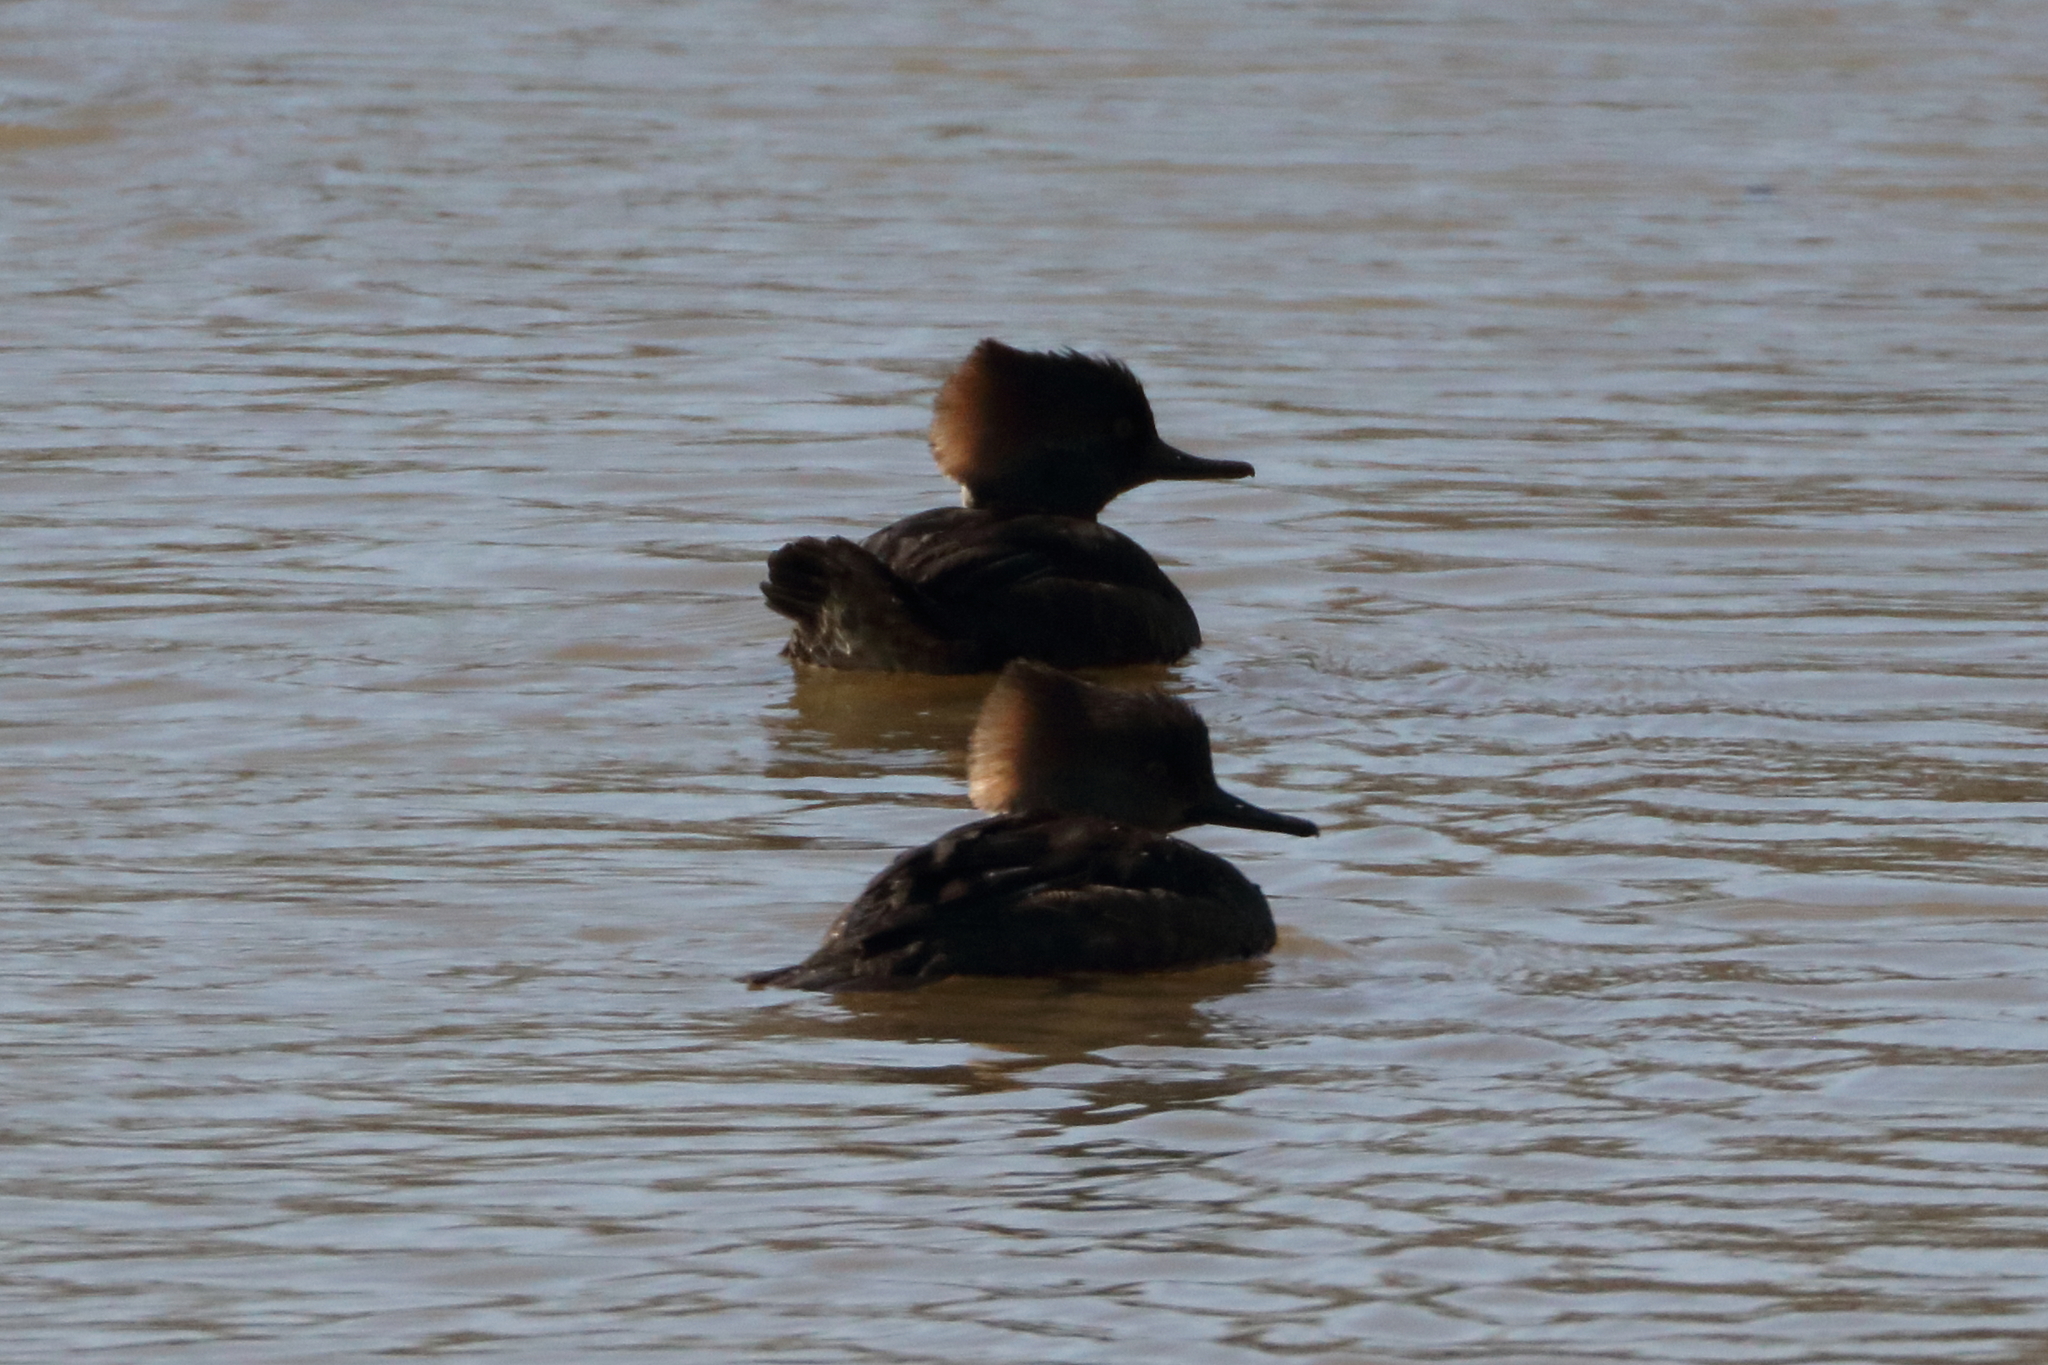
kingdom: Animalia
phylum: Chordata
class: Aves
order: Anseriformes
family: Anatidae
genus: Lophodytes
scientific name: Lophodytes cucullatus
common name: Hooded merganser
